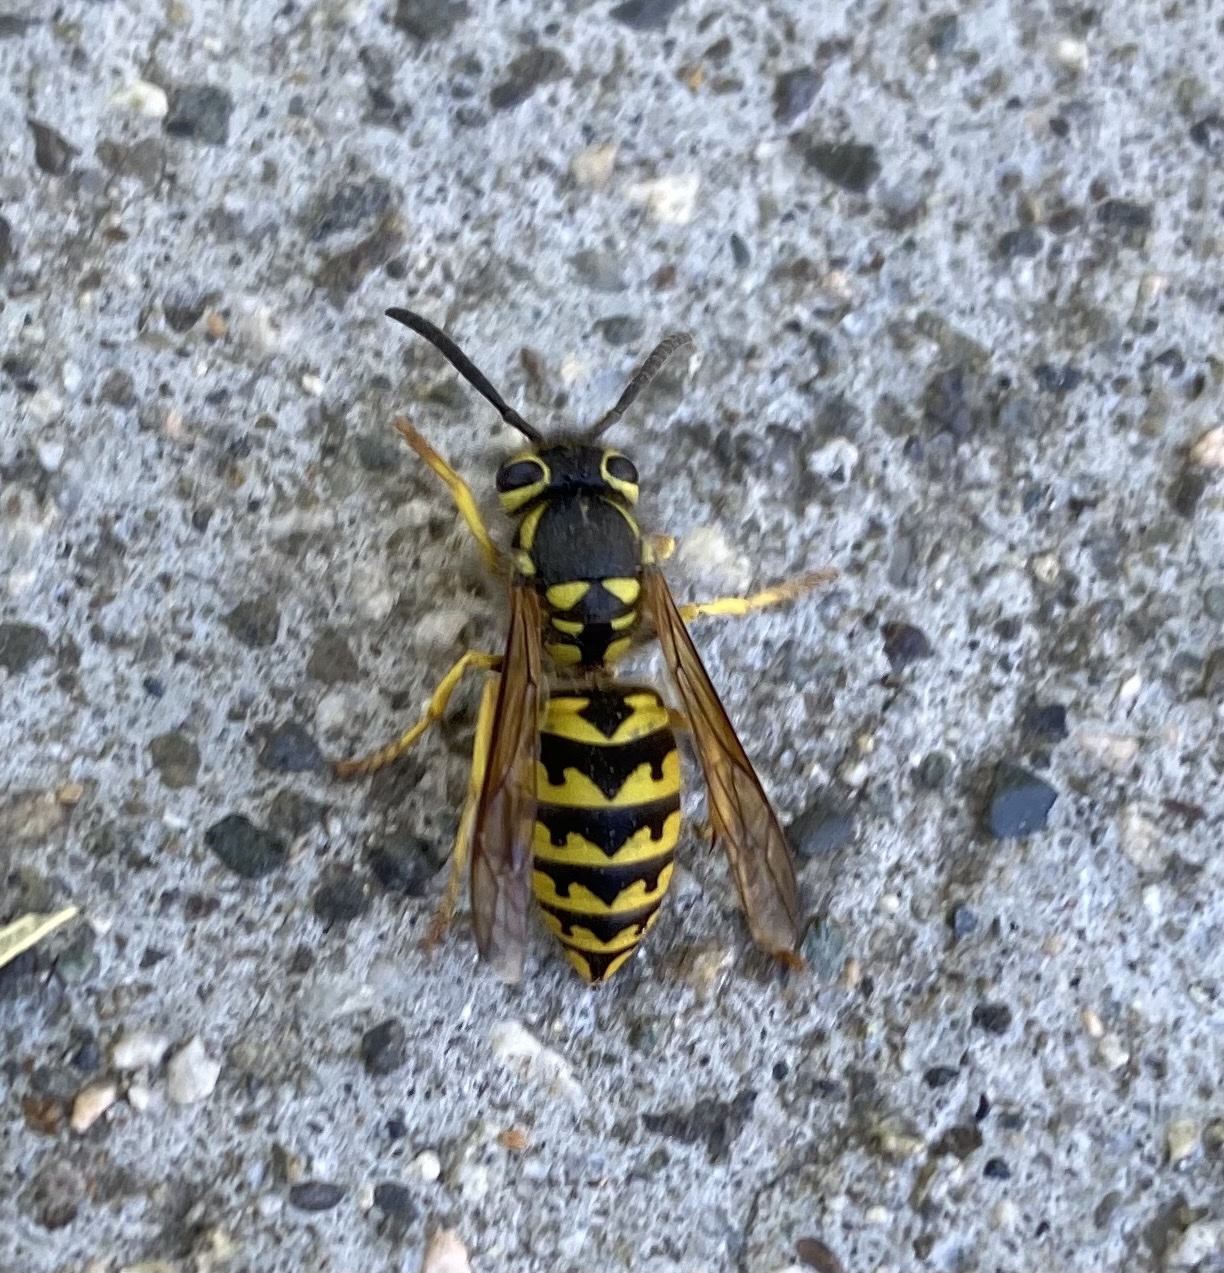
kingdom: Animalia
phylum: Arthropoda
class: Insecta
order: Hymenoptera
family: Vespidae
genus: Vespula
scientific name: Vespula pensylvanica
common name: Western yellowjacket
